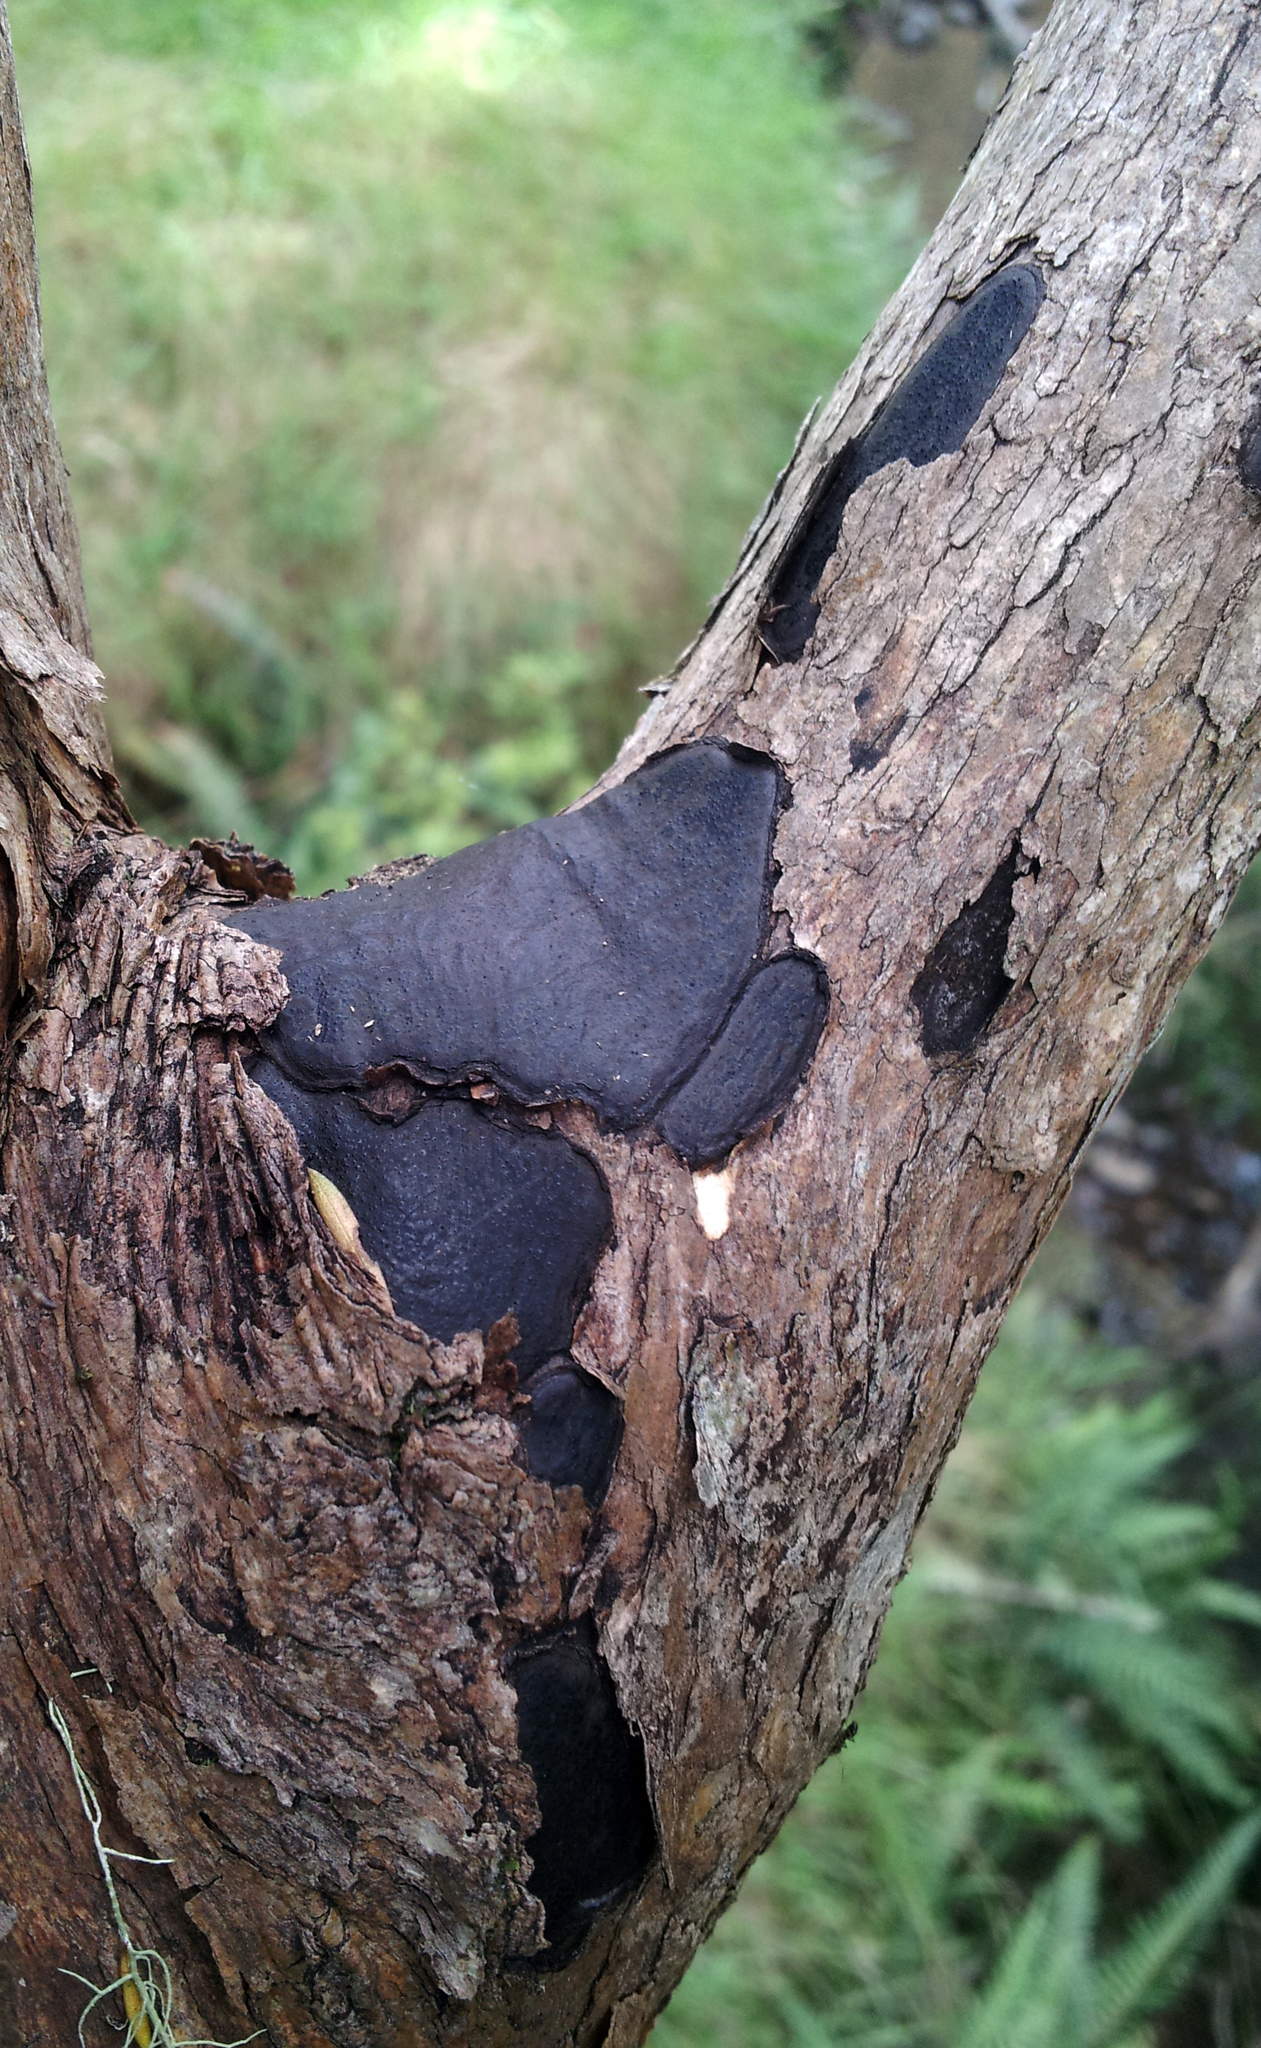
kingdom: Fungi
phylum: Ascomycota
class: Sordariomycetes
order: Xylariales
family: Graphostromataceae
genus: Biscogniauxia
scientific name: Biscogniauxia capnodes
